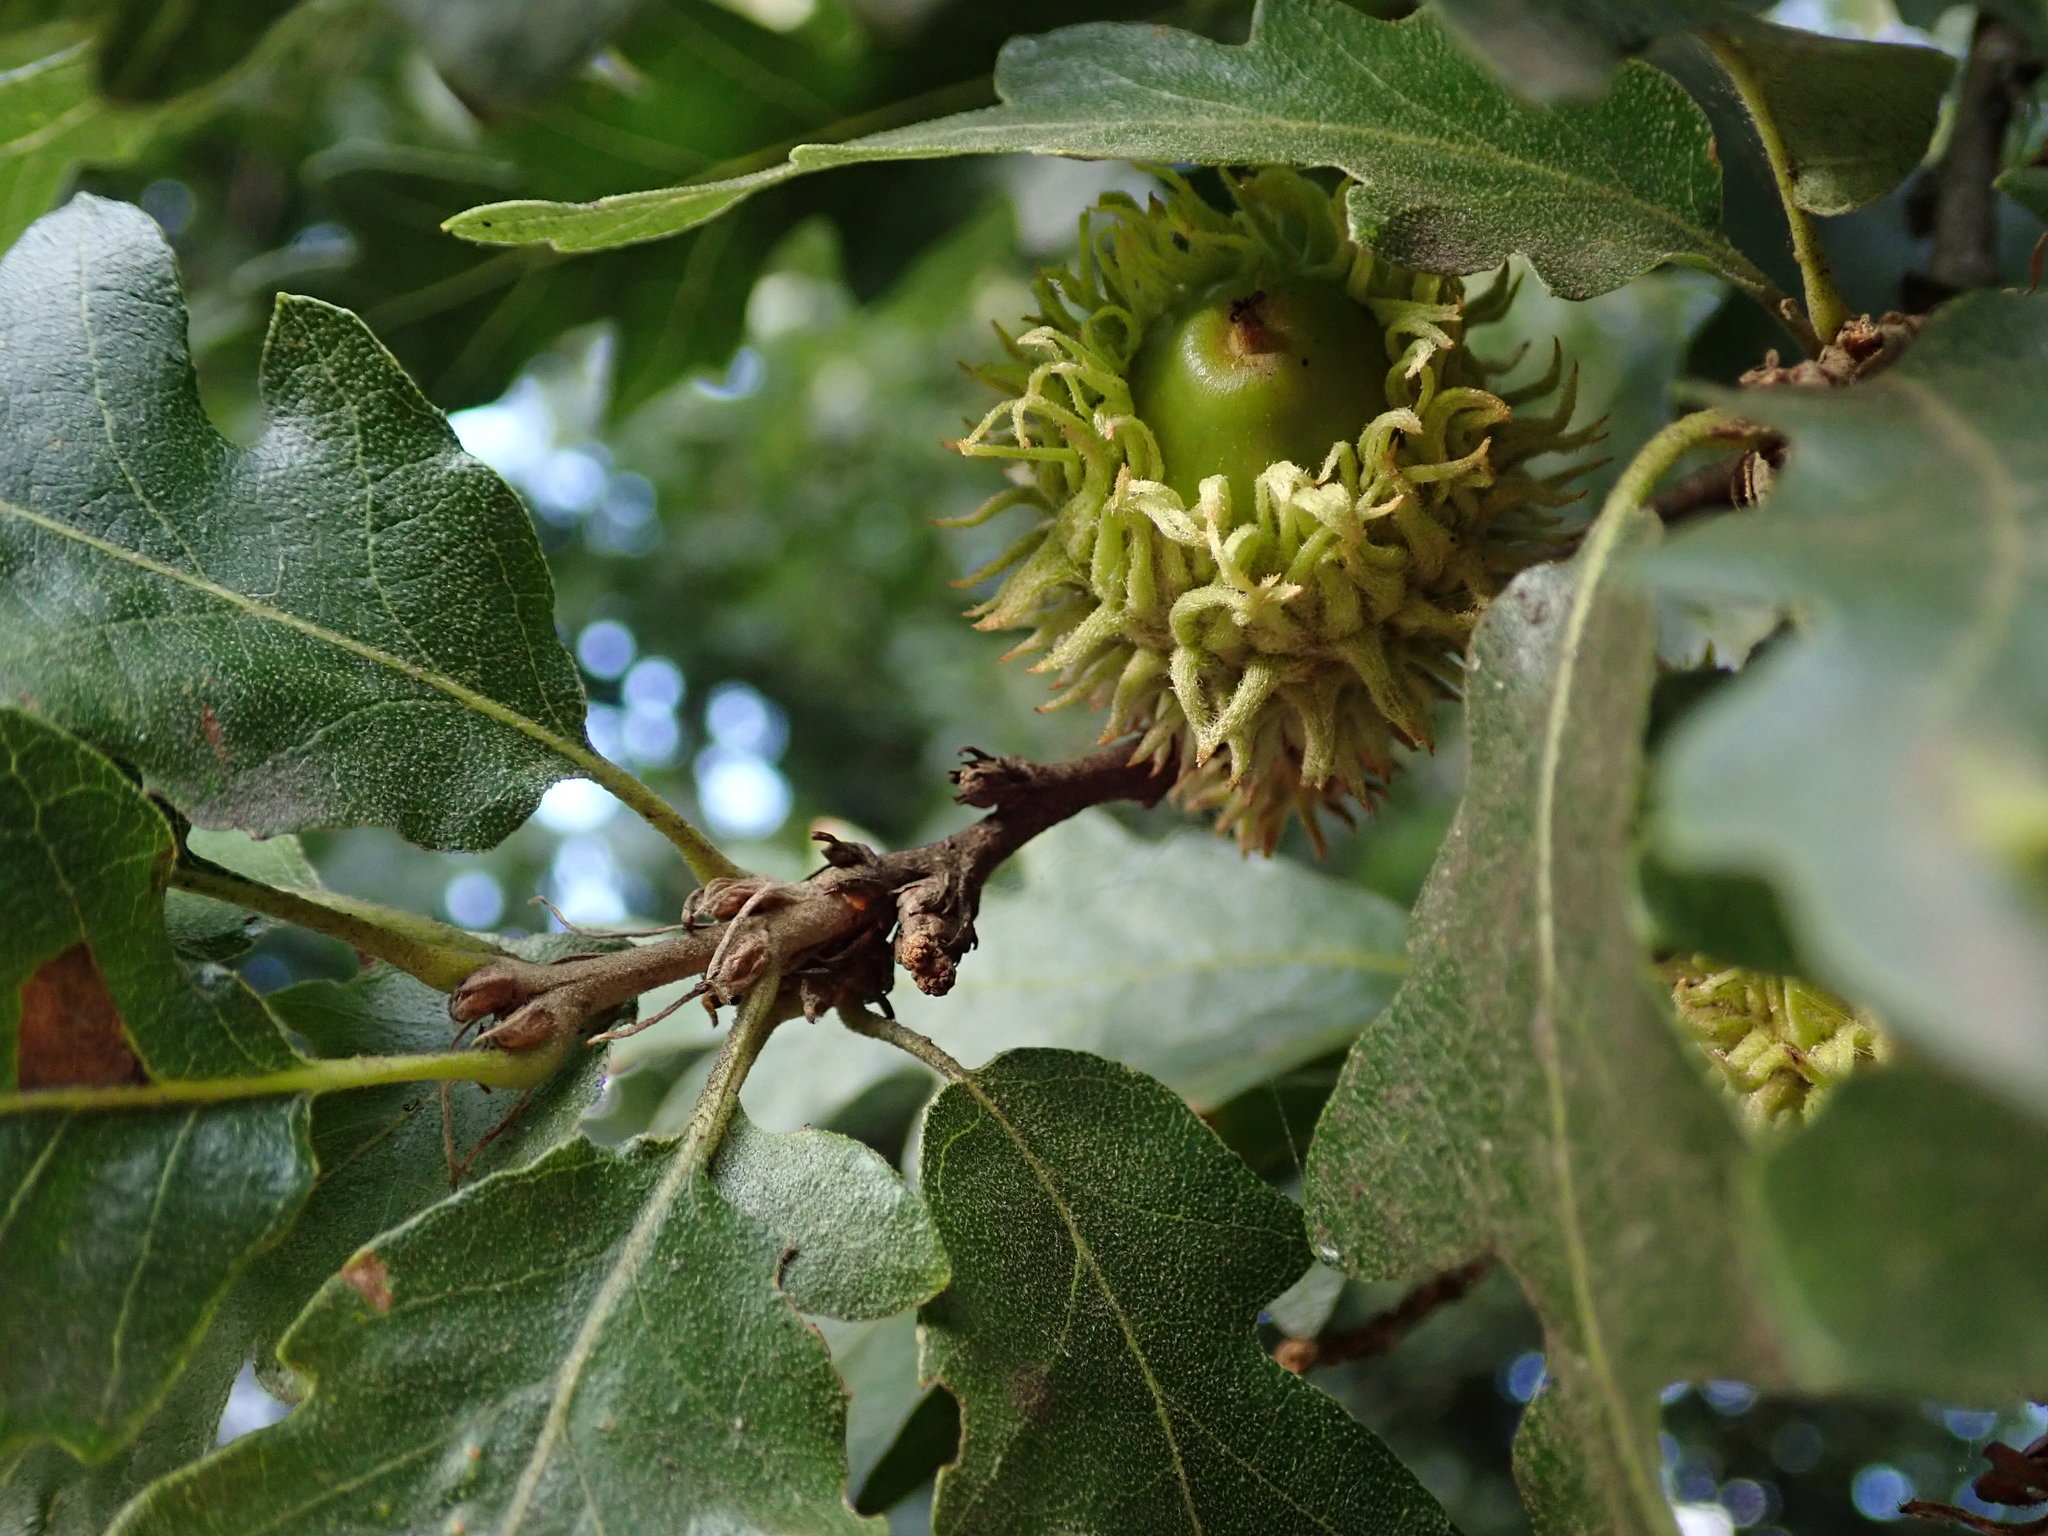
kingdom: Plantae
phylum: Tracheophyta
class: Magnoliopsida
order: Fagales
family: Fagaceae
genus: Quercus
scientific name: Quercus cerris
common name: Turkey oak
